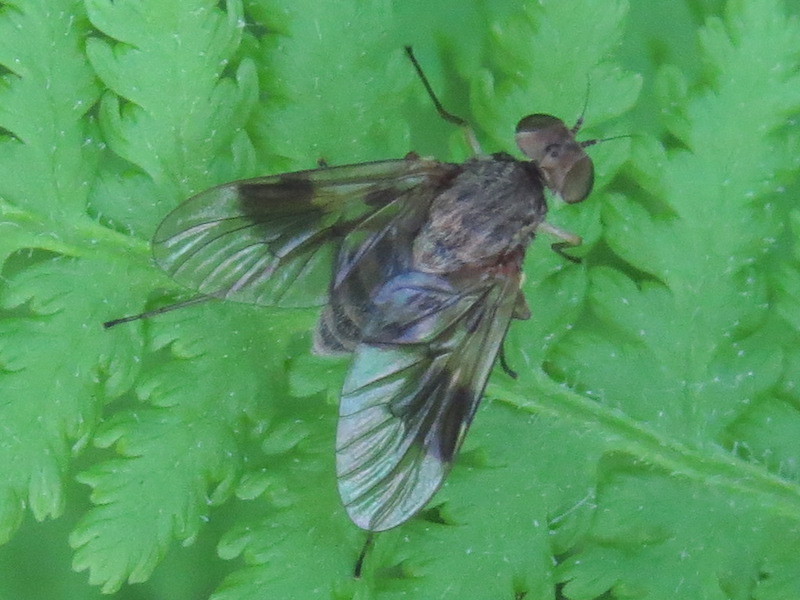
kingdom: Animalia
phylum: Arthropoda
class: Insecta
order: Diptera
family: Rhagionidae
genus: Chrysopilus
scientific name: Chrysopilus quadratus
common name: Quadrate snipe fly
